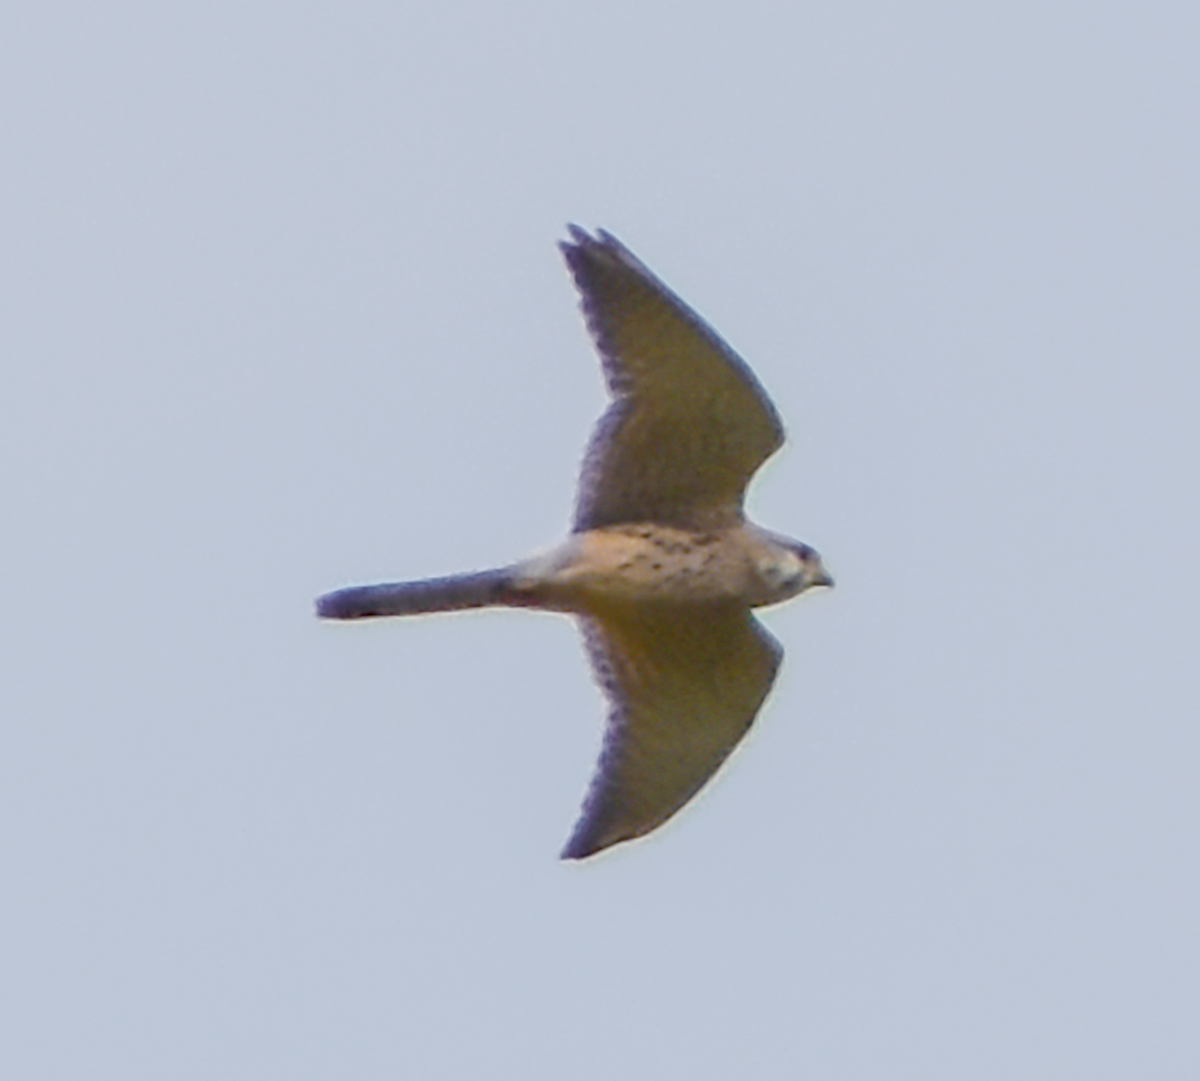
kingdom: Animalia
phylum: Chordata
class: Aves
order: Falconiformes
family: Falconidae
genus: Falco
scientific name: Falco tinnunculus
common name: Common kestrel
